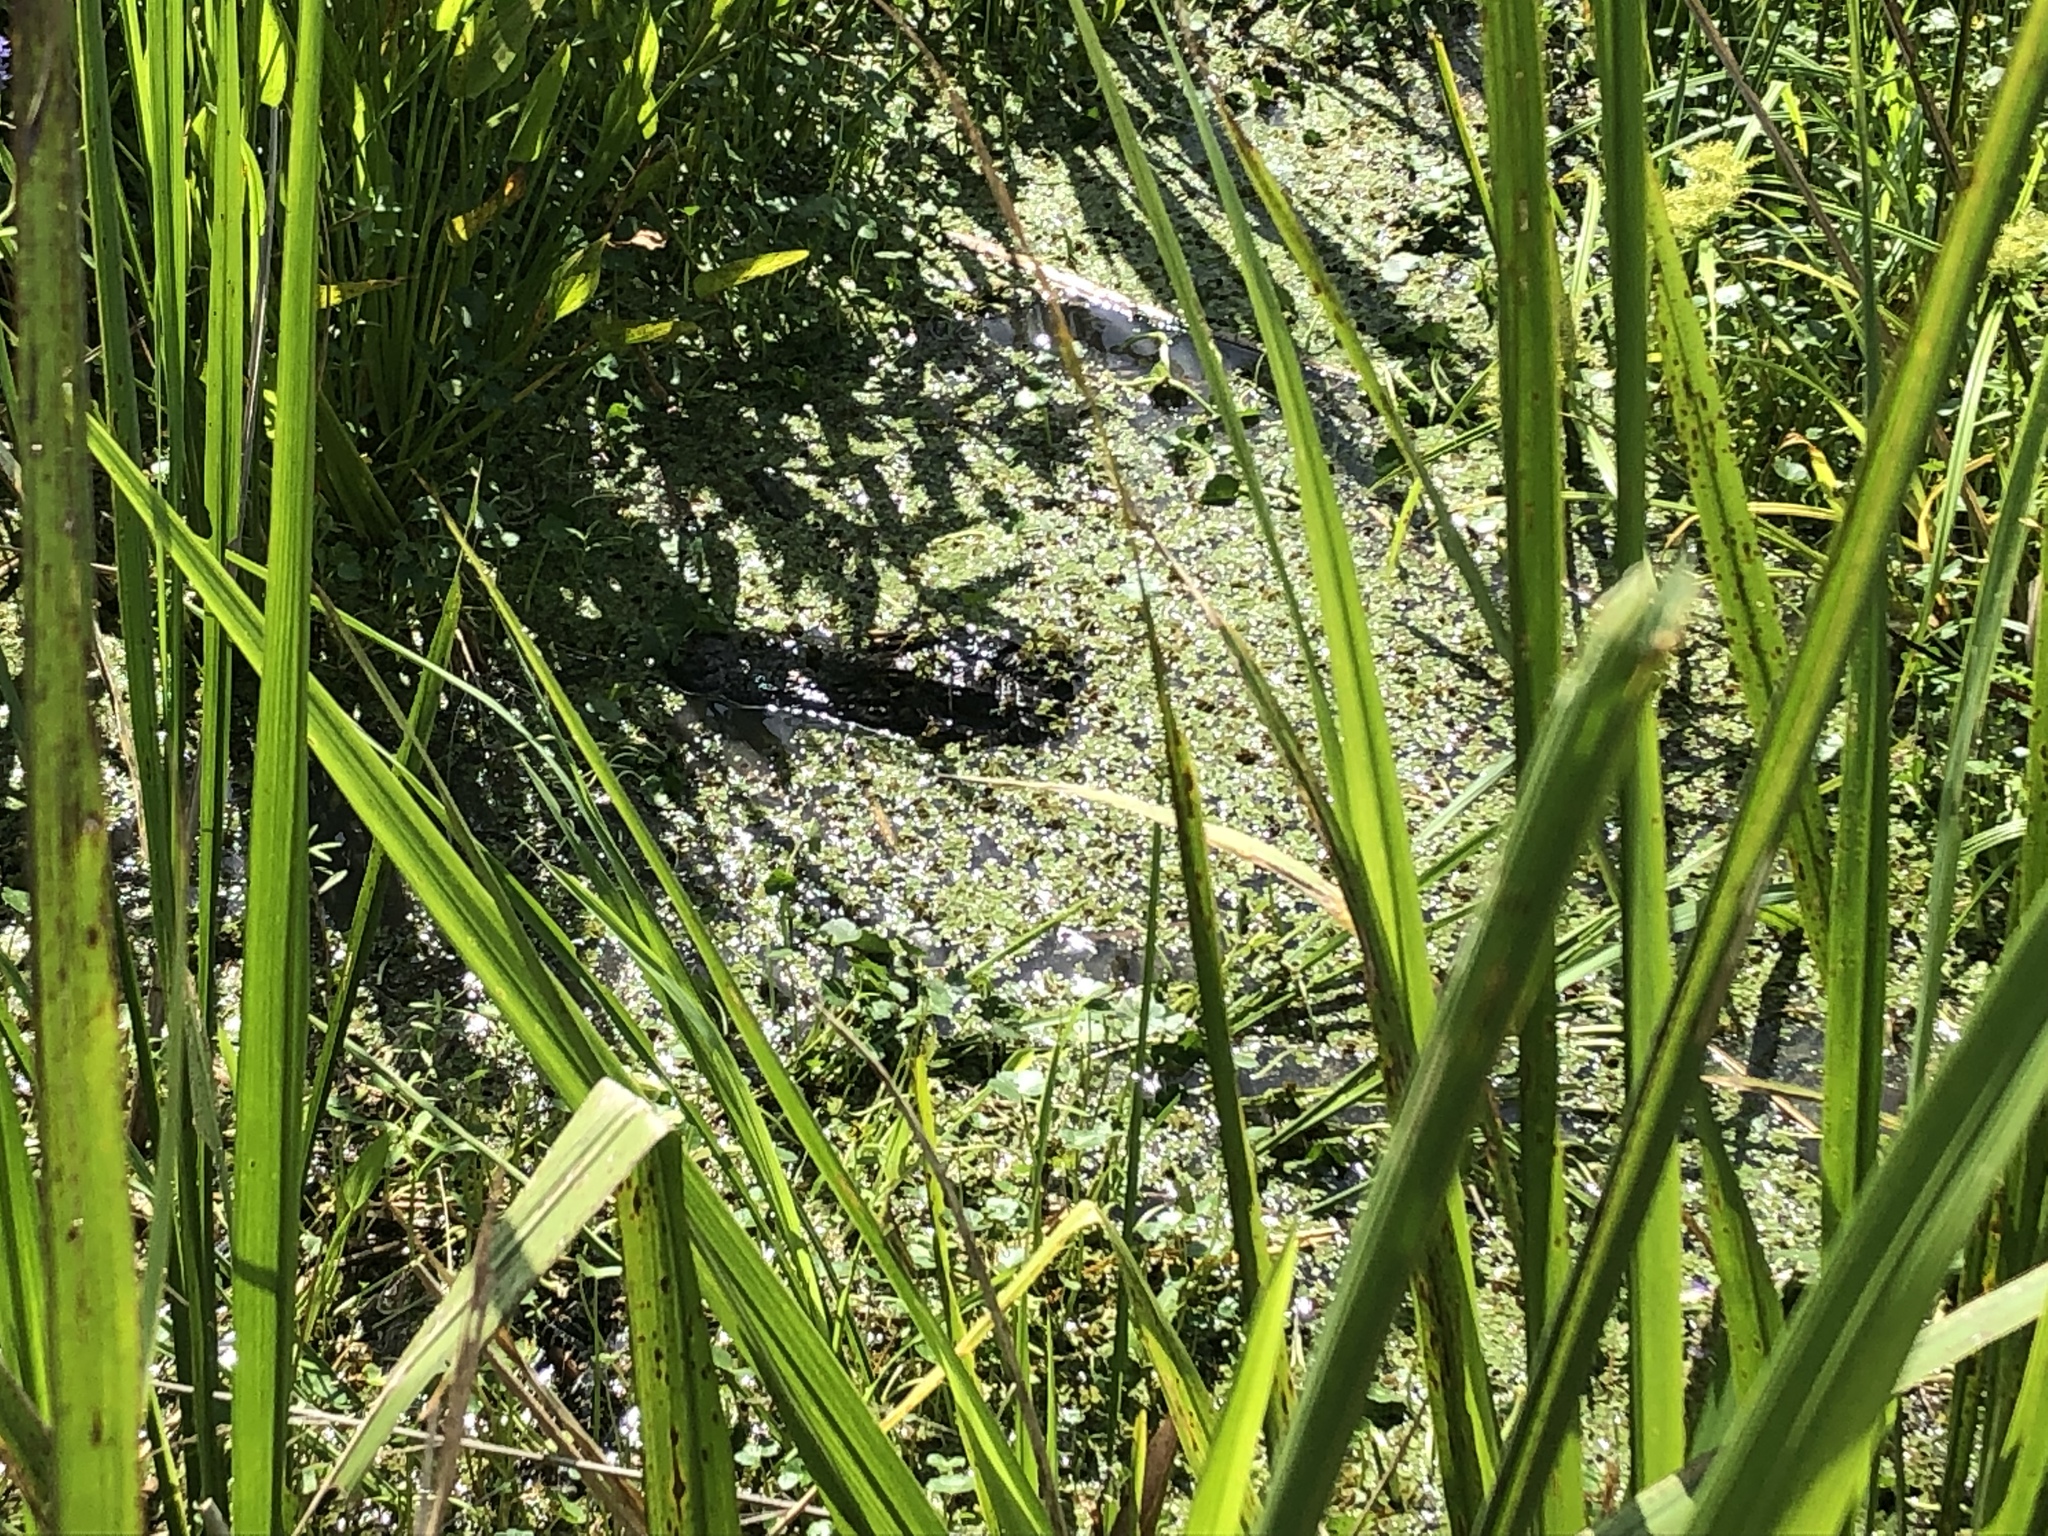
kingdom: Animalia
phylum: Chordata
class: Crocodylia
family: Alligatoridae
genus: Alligator
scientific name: Alligator mississippiensis
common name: American alligator
